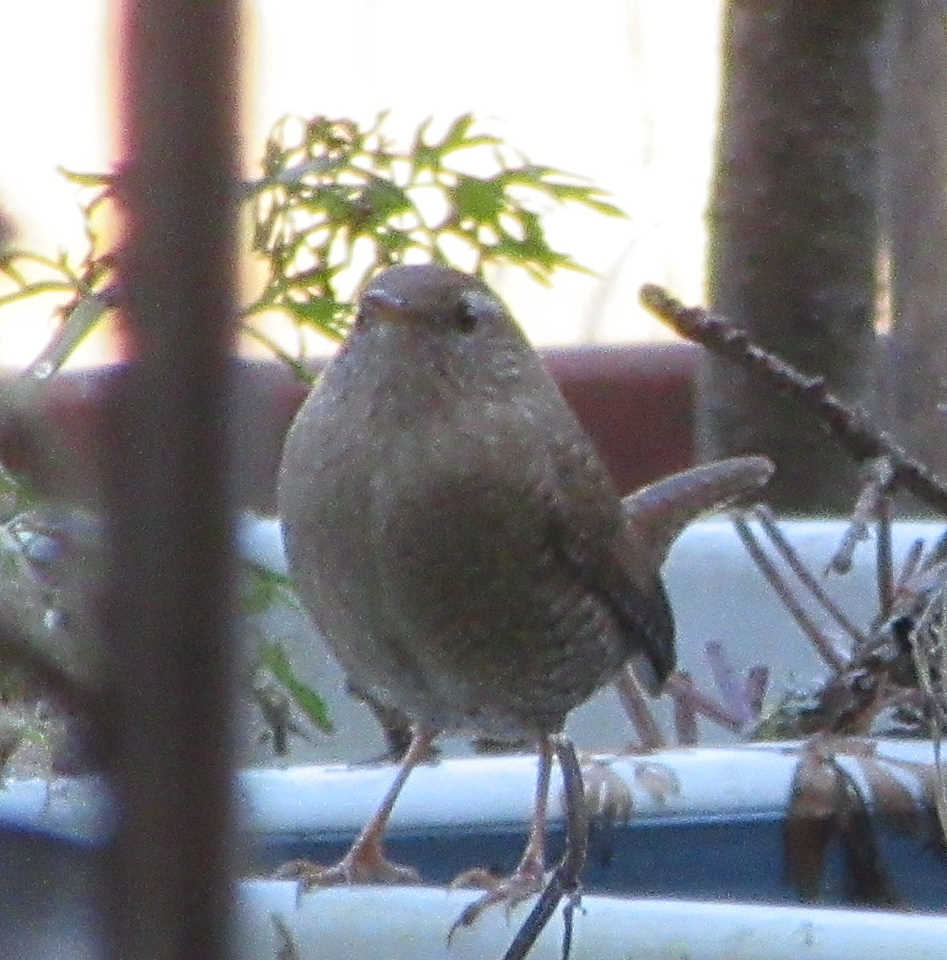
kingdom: Animalia
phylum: Chordata
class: Aves
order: Passeriformes
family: Troglodytidae
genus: Troglodytes
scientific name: Troglodytes troglodytes
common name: Eurasian wren
